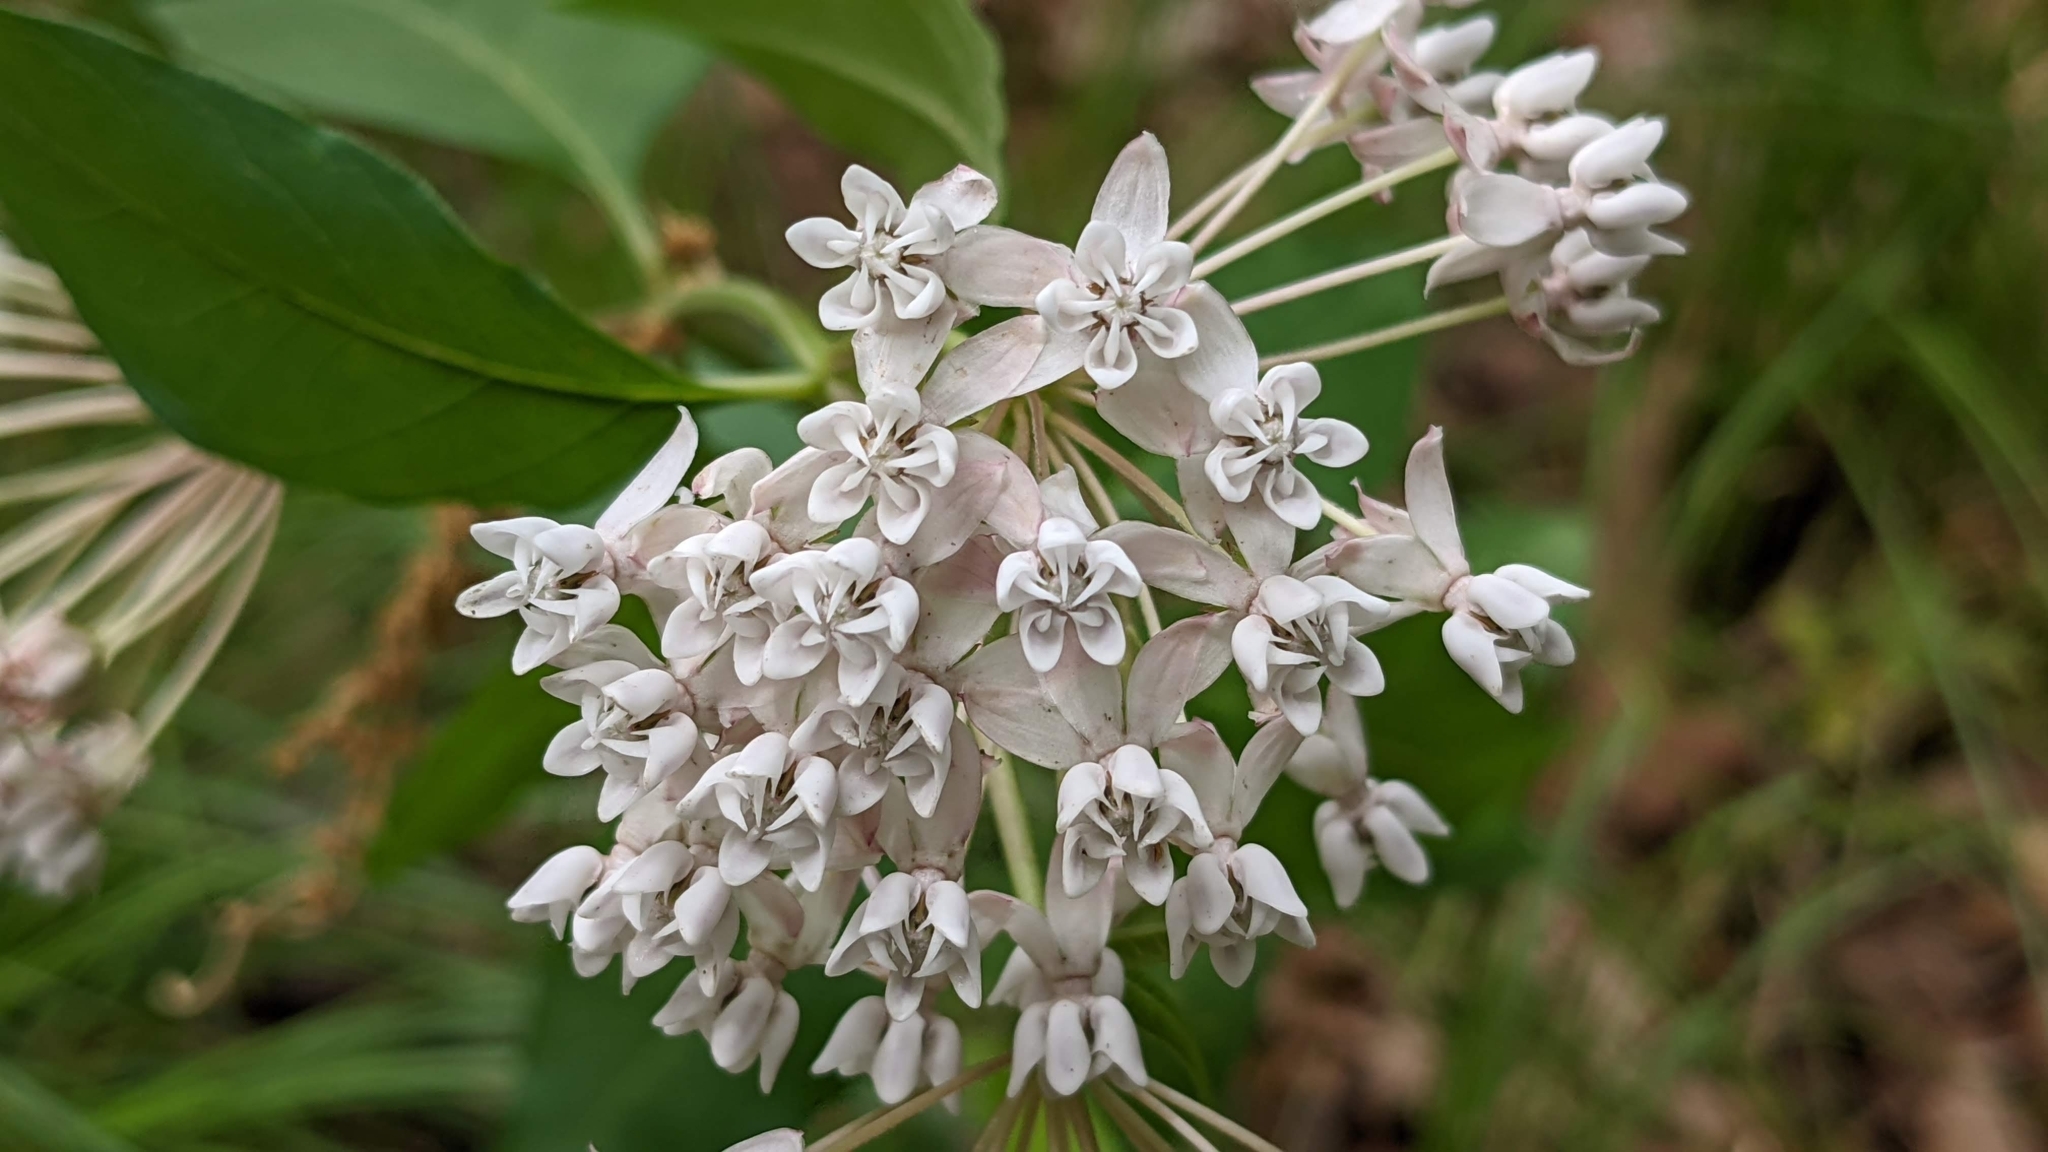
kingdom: Plantae
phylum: Tracheophyta
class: Magnoliopsida
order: Gentianales
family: Apocynaceae
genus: Asclepias
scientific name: Asclepias quadrifolia
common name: Whorled milkweed
